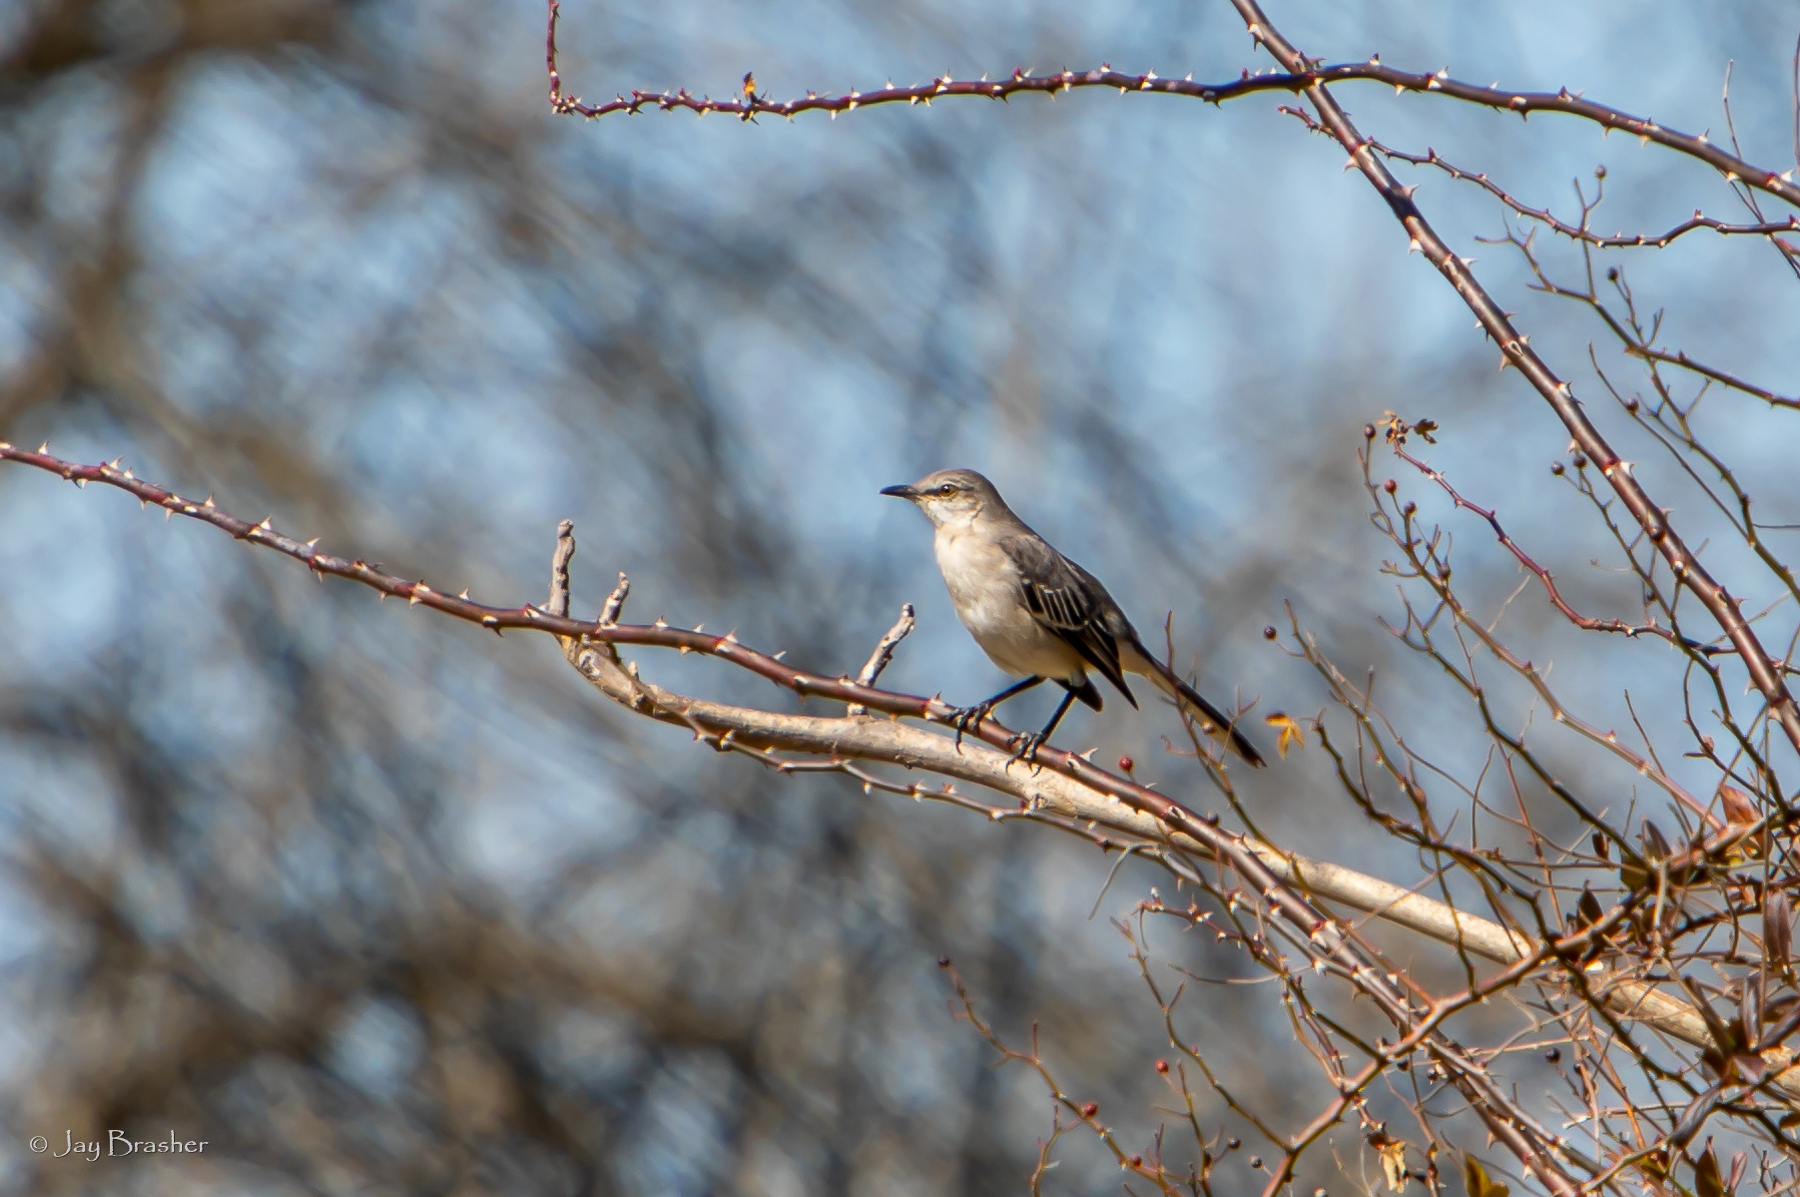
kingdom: Animalia
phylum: Chordata
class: Aves
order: Passeriformes
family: Mimidae
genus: Mimus
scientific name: Mimus polyglottos
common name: Northern mockingbird
